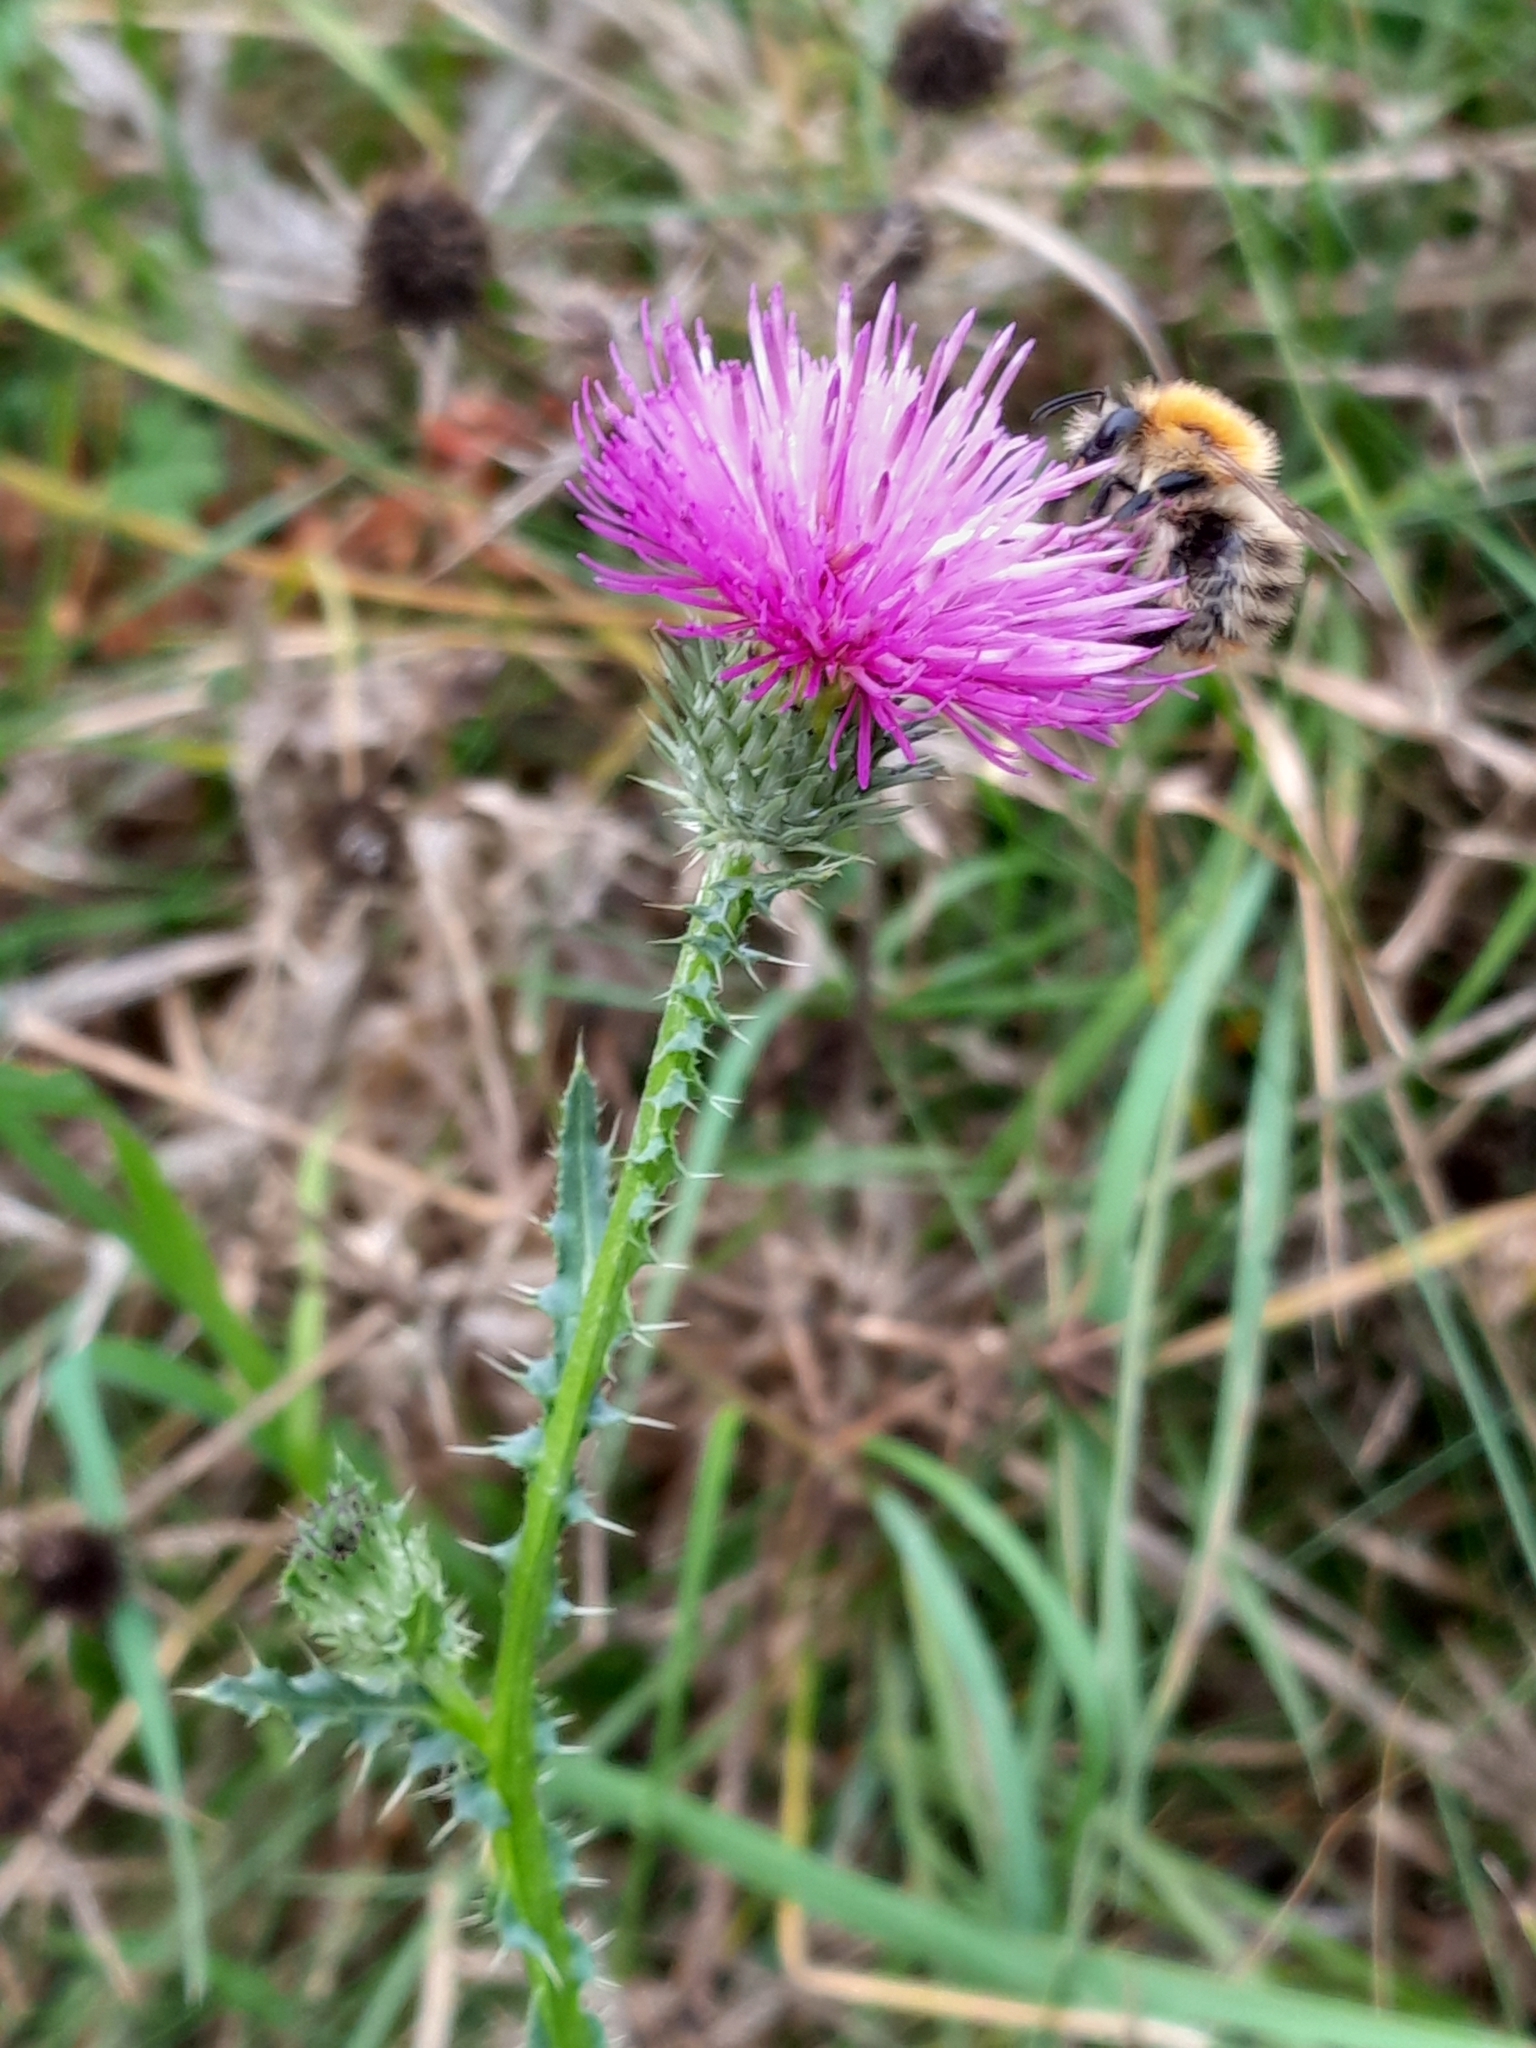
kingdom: Animalia
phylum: Arthropoda
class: Insecta
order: Hymenoptera
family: Apidae
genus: Bombus
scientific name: Bombus pascuorum
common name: Common carder bee
